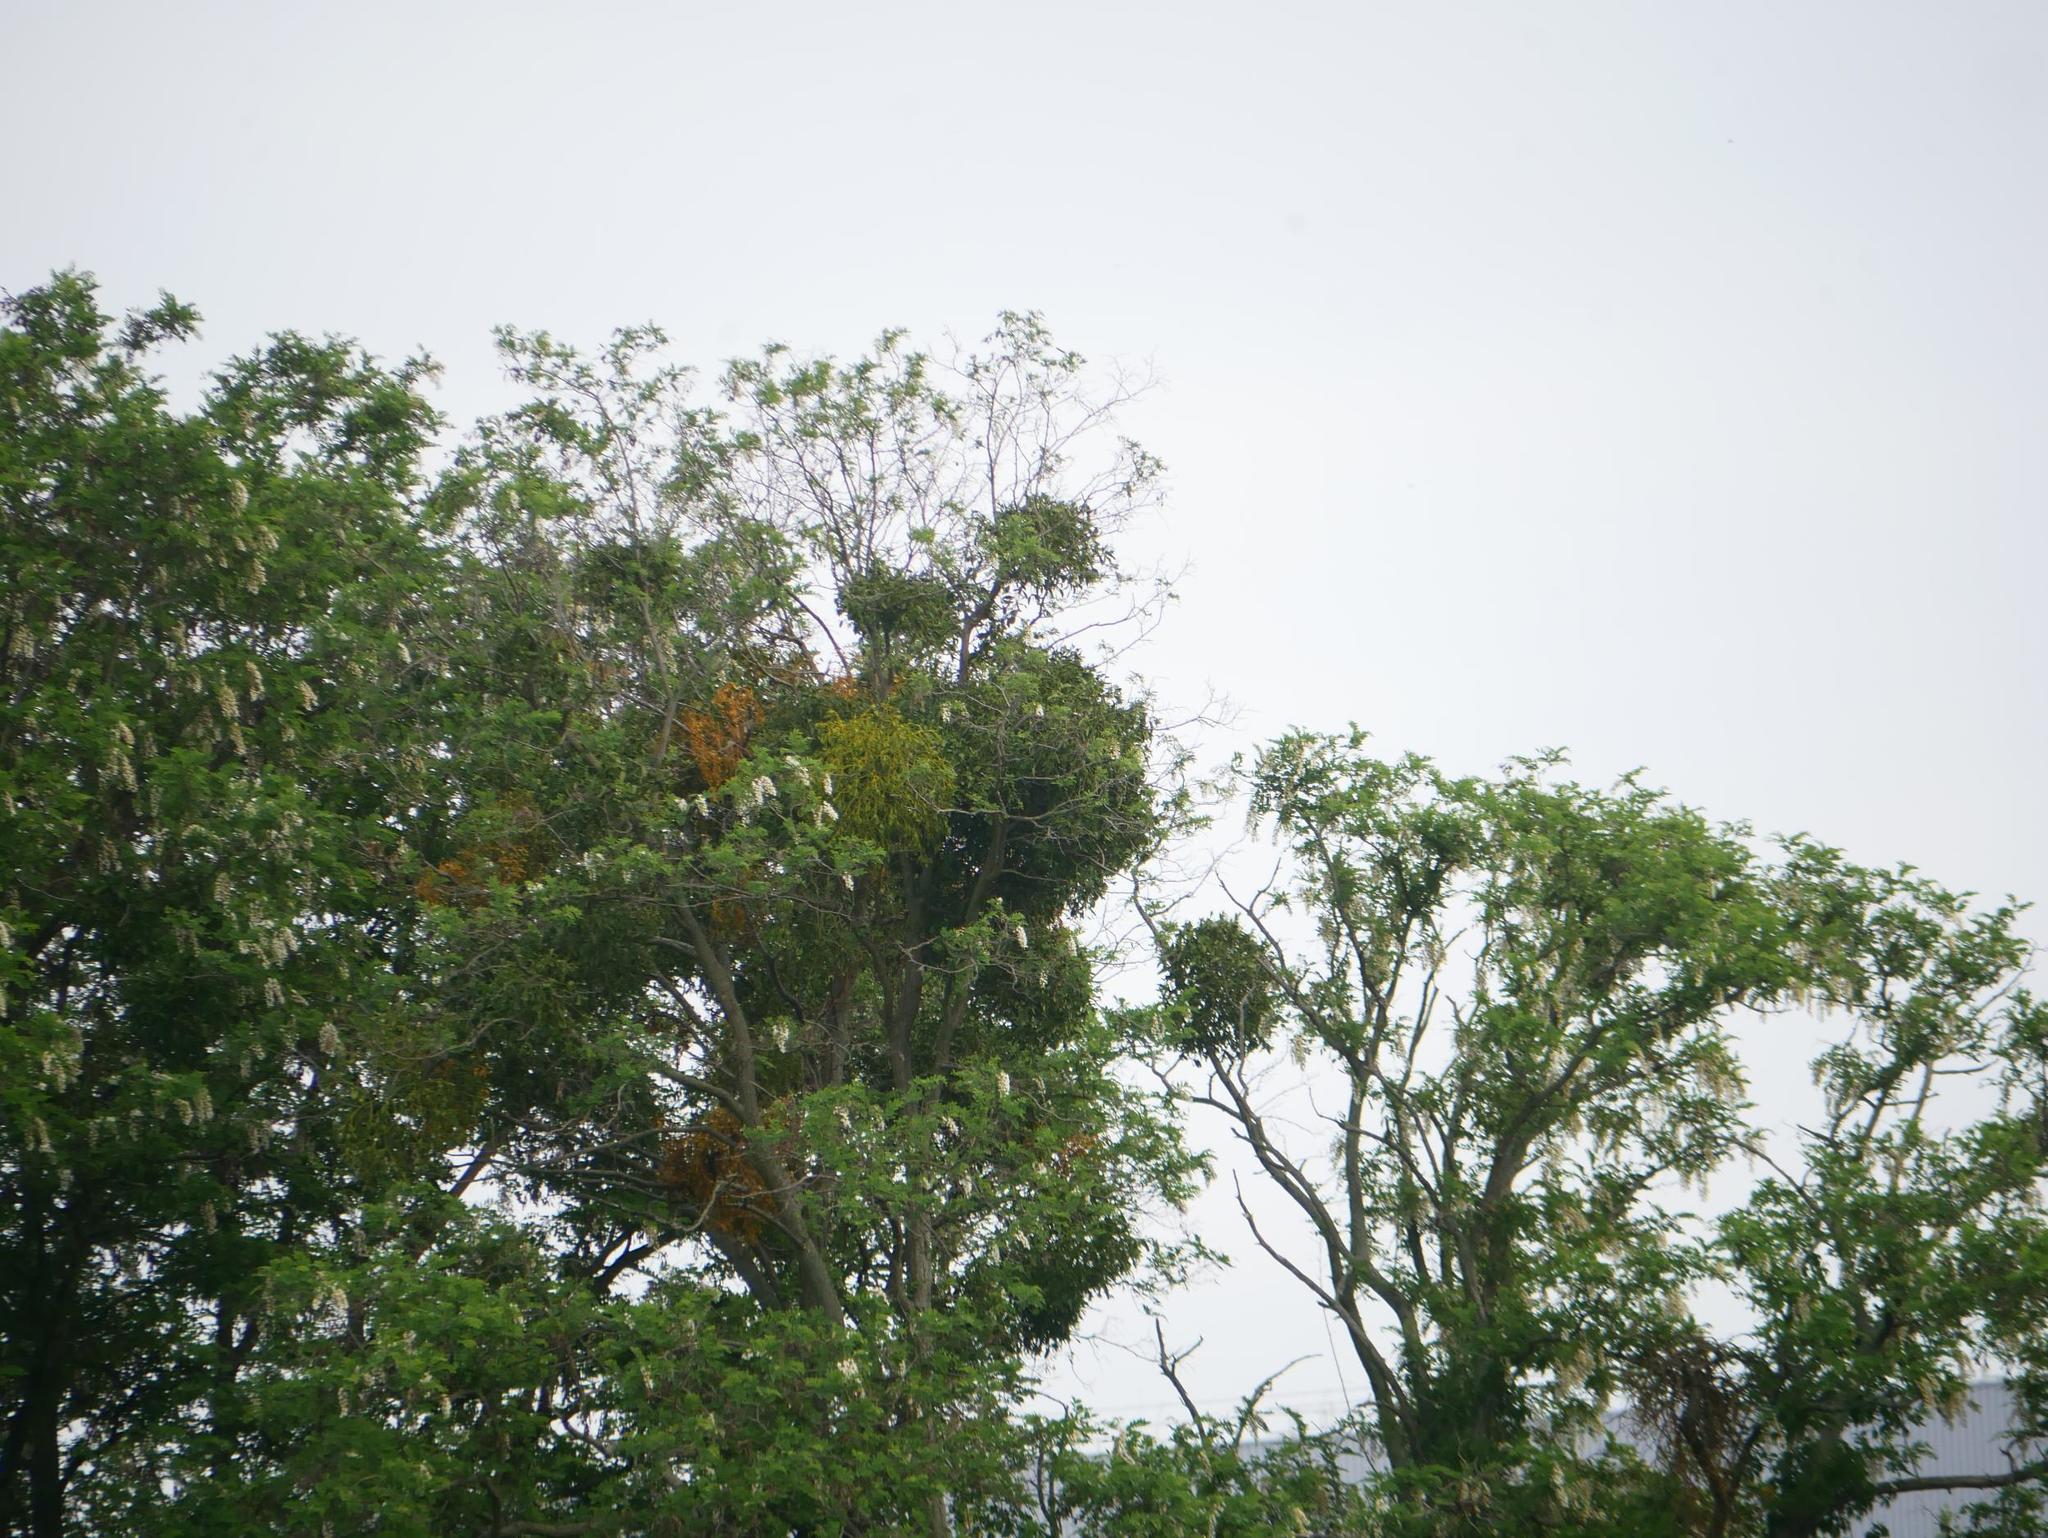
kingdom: Plantae
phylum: Tracheophyta
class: Magnoliopsida
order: Santalales
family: Viscaceae
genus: Viscum
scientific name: Viscum album
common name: Mistletoe
